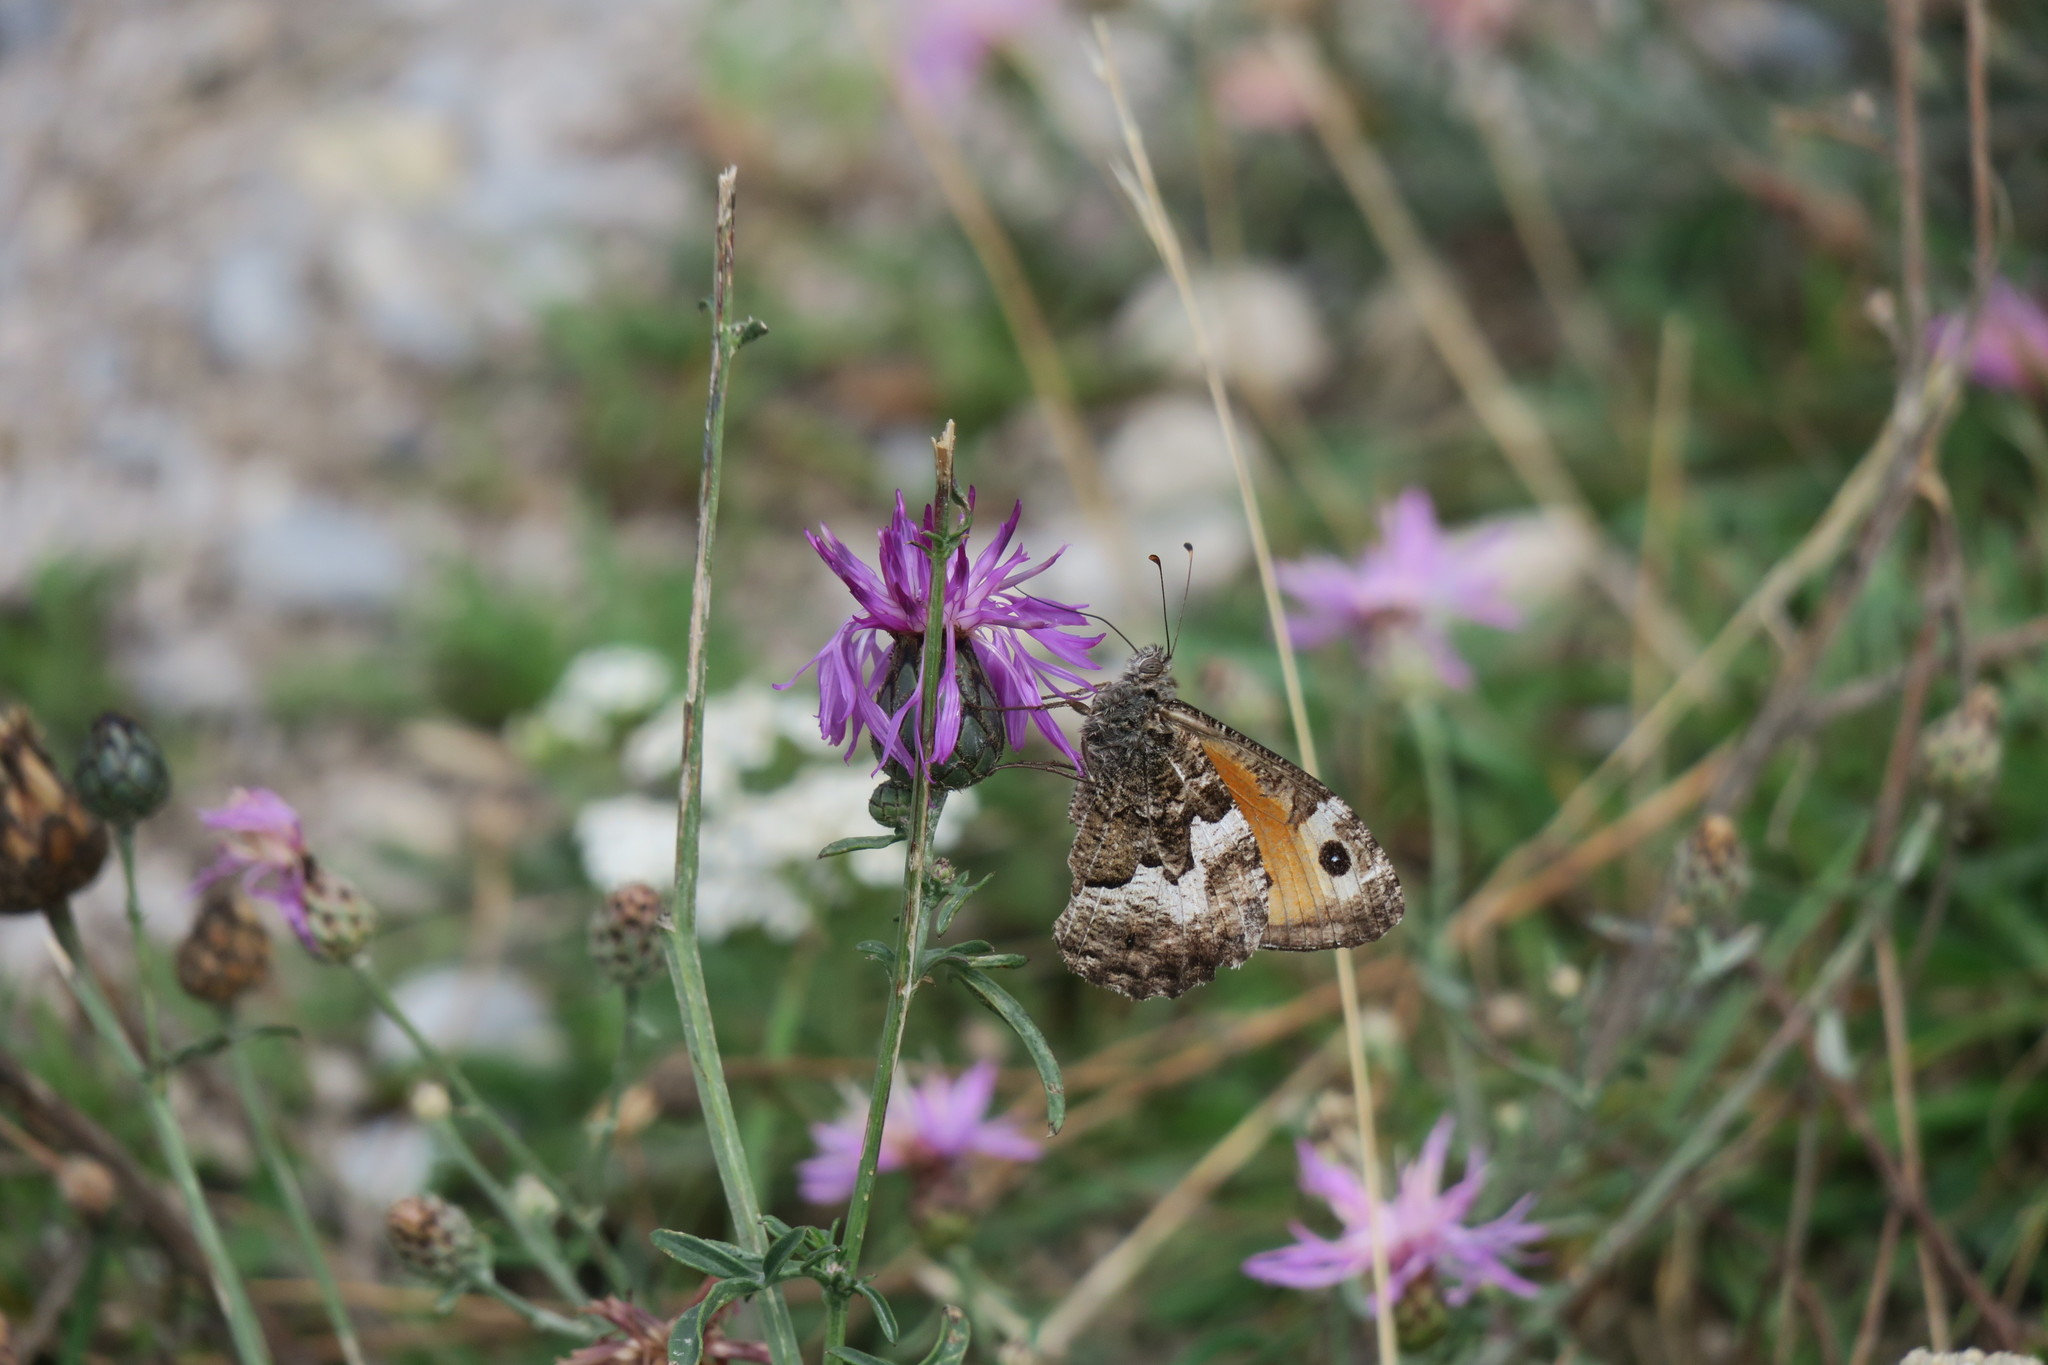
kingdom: Animalia
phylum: Arthropoda
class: Insecta
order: Lepidoptera
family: Nymphalidae
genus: Hipparchia
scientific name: Hipparchia semele
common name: Grayling
